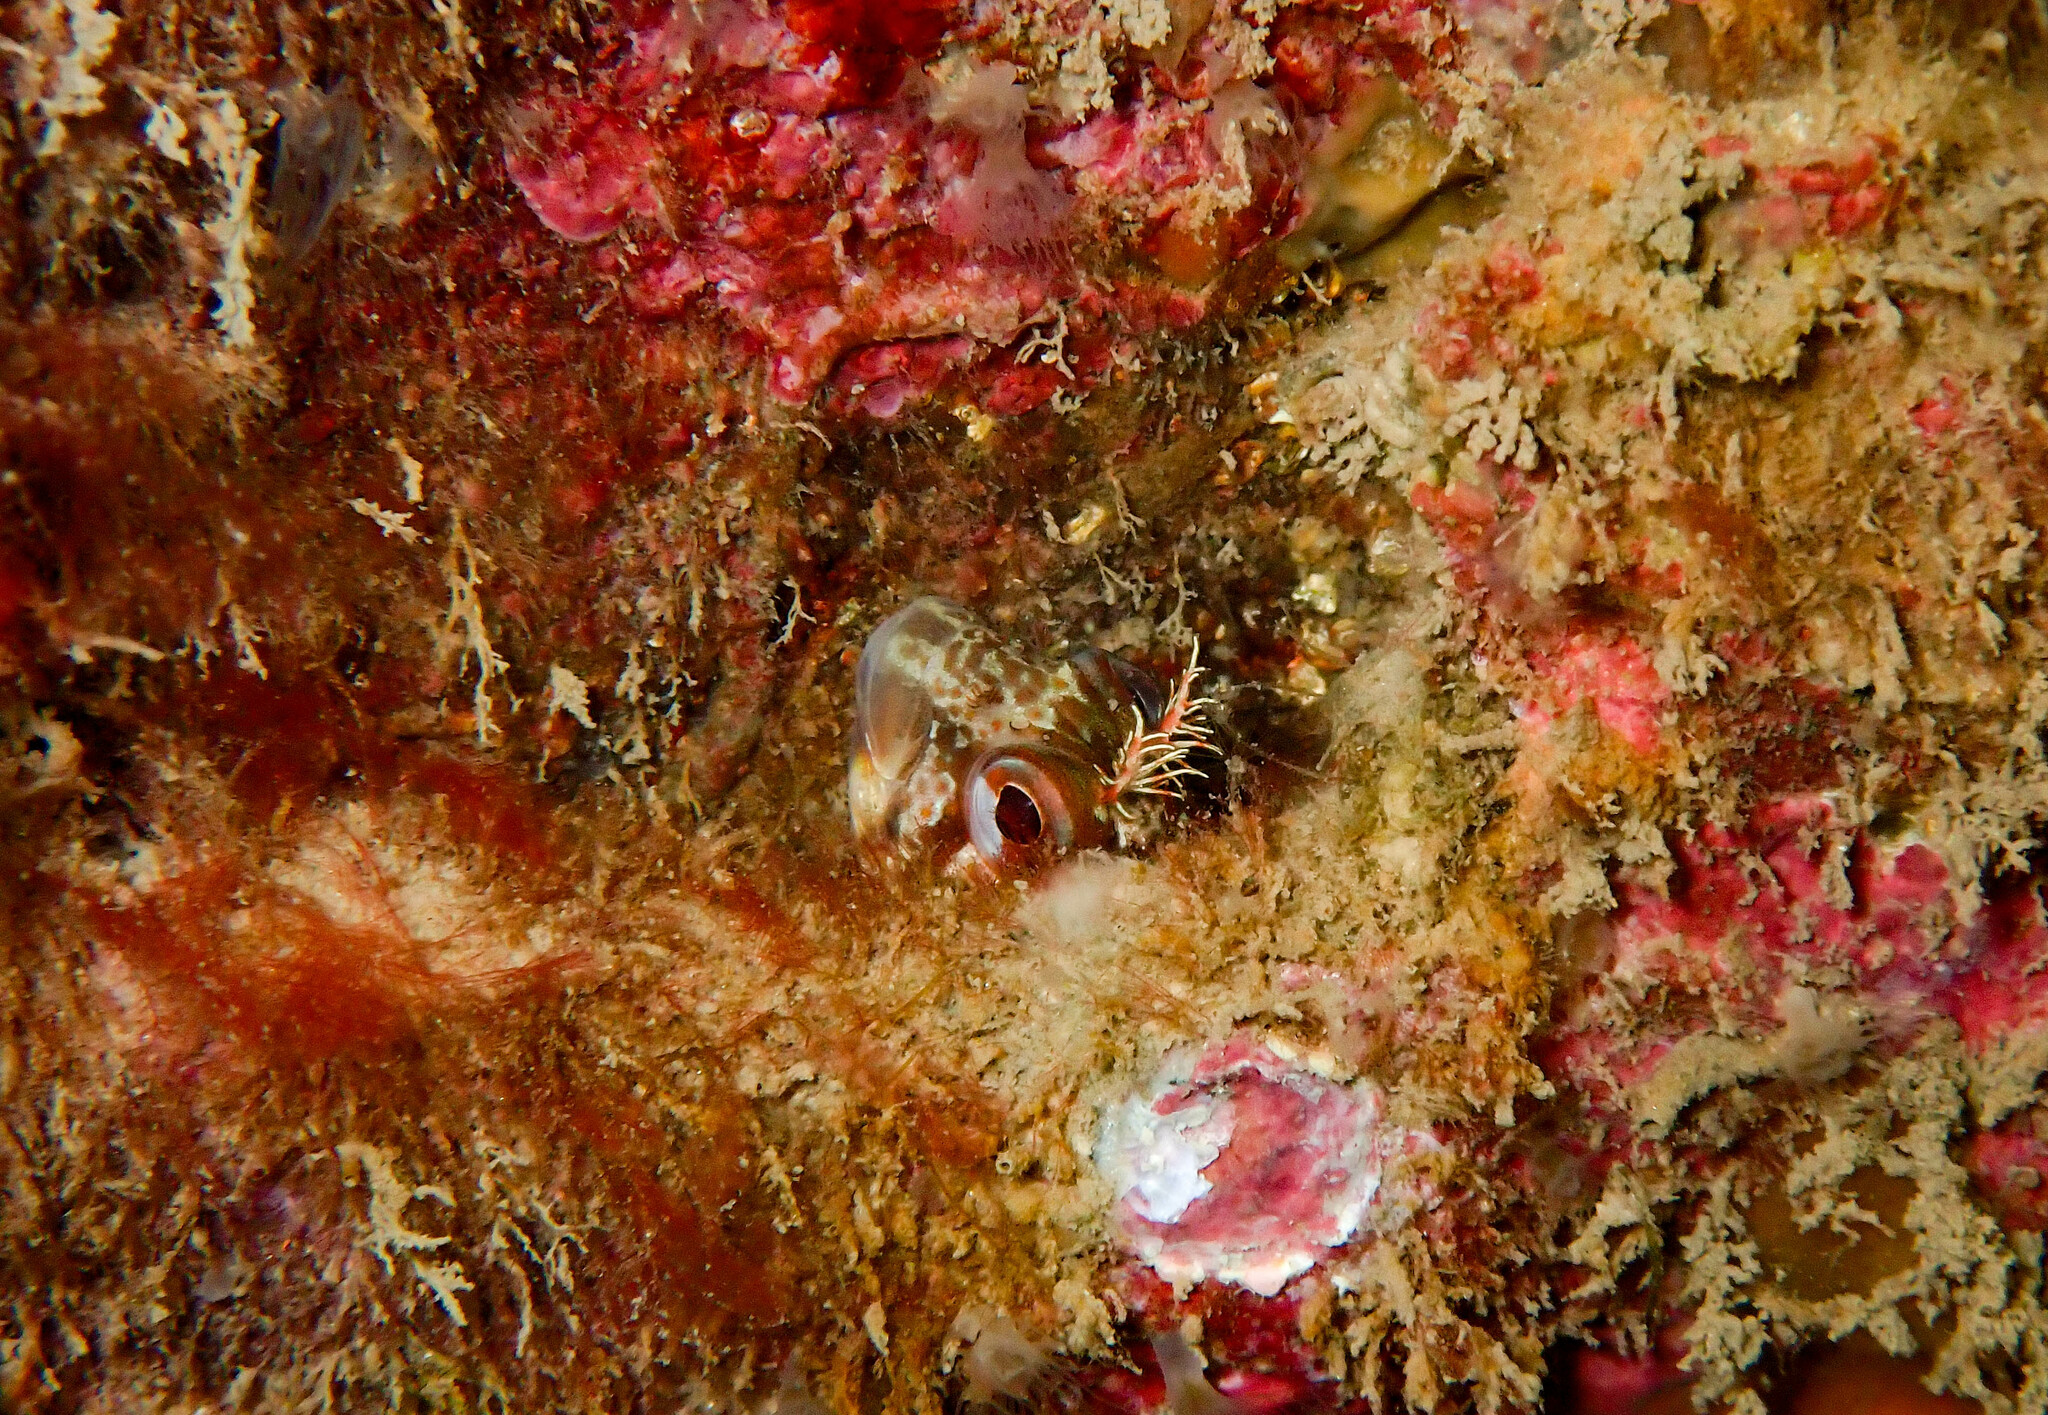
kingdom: Animalia
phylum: Chordata
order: Perciformes
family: Blenniidae
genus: Parablennius
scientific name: Parablennius gattorugine
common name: Tompot blenny
